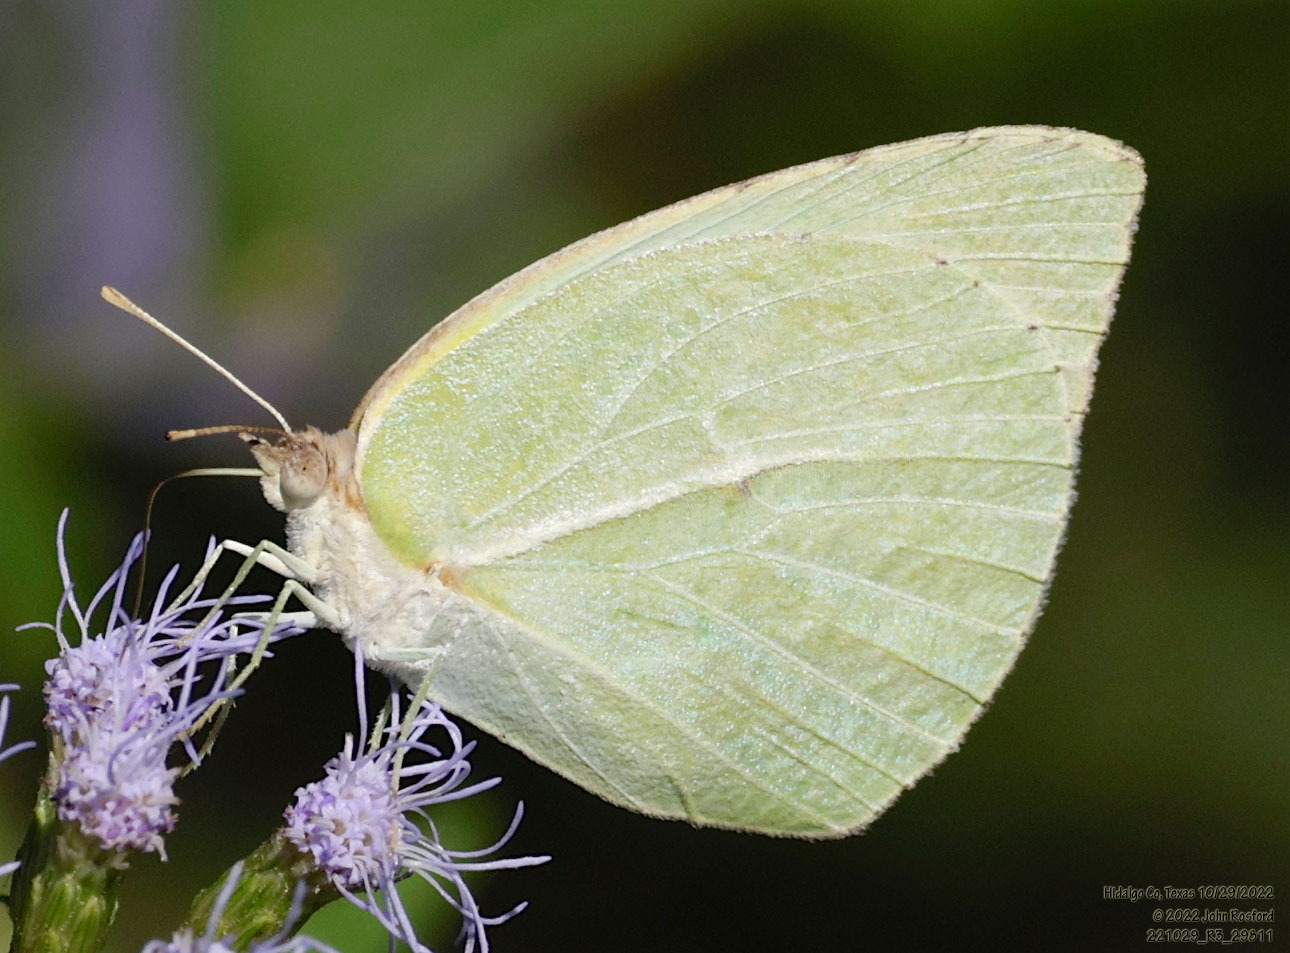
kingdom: Animalia
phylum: Arthropoda
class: Insecta
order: Lepidoptera
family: Pieridae
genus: Kricogonia
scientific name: Kricogonia lyside
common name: Guayacan sulphur,
